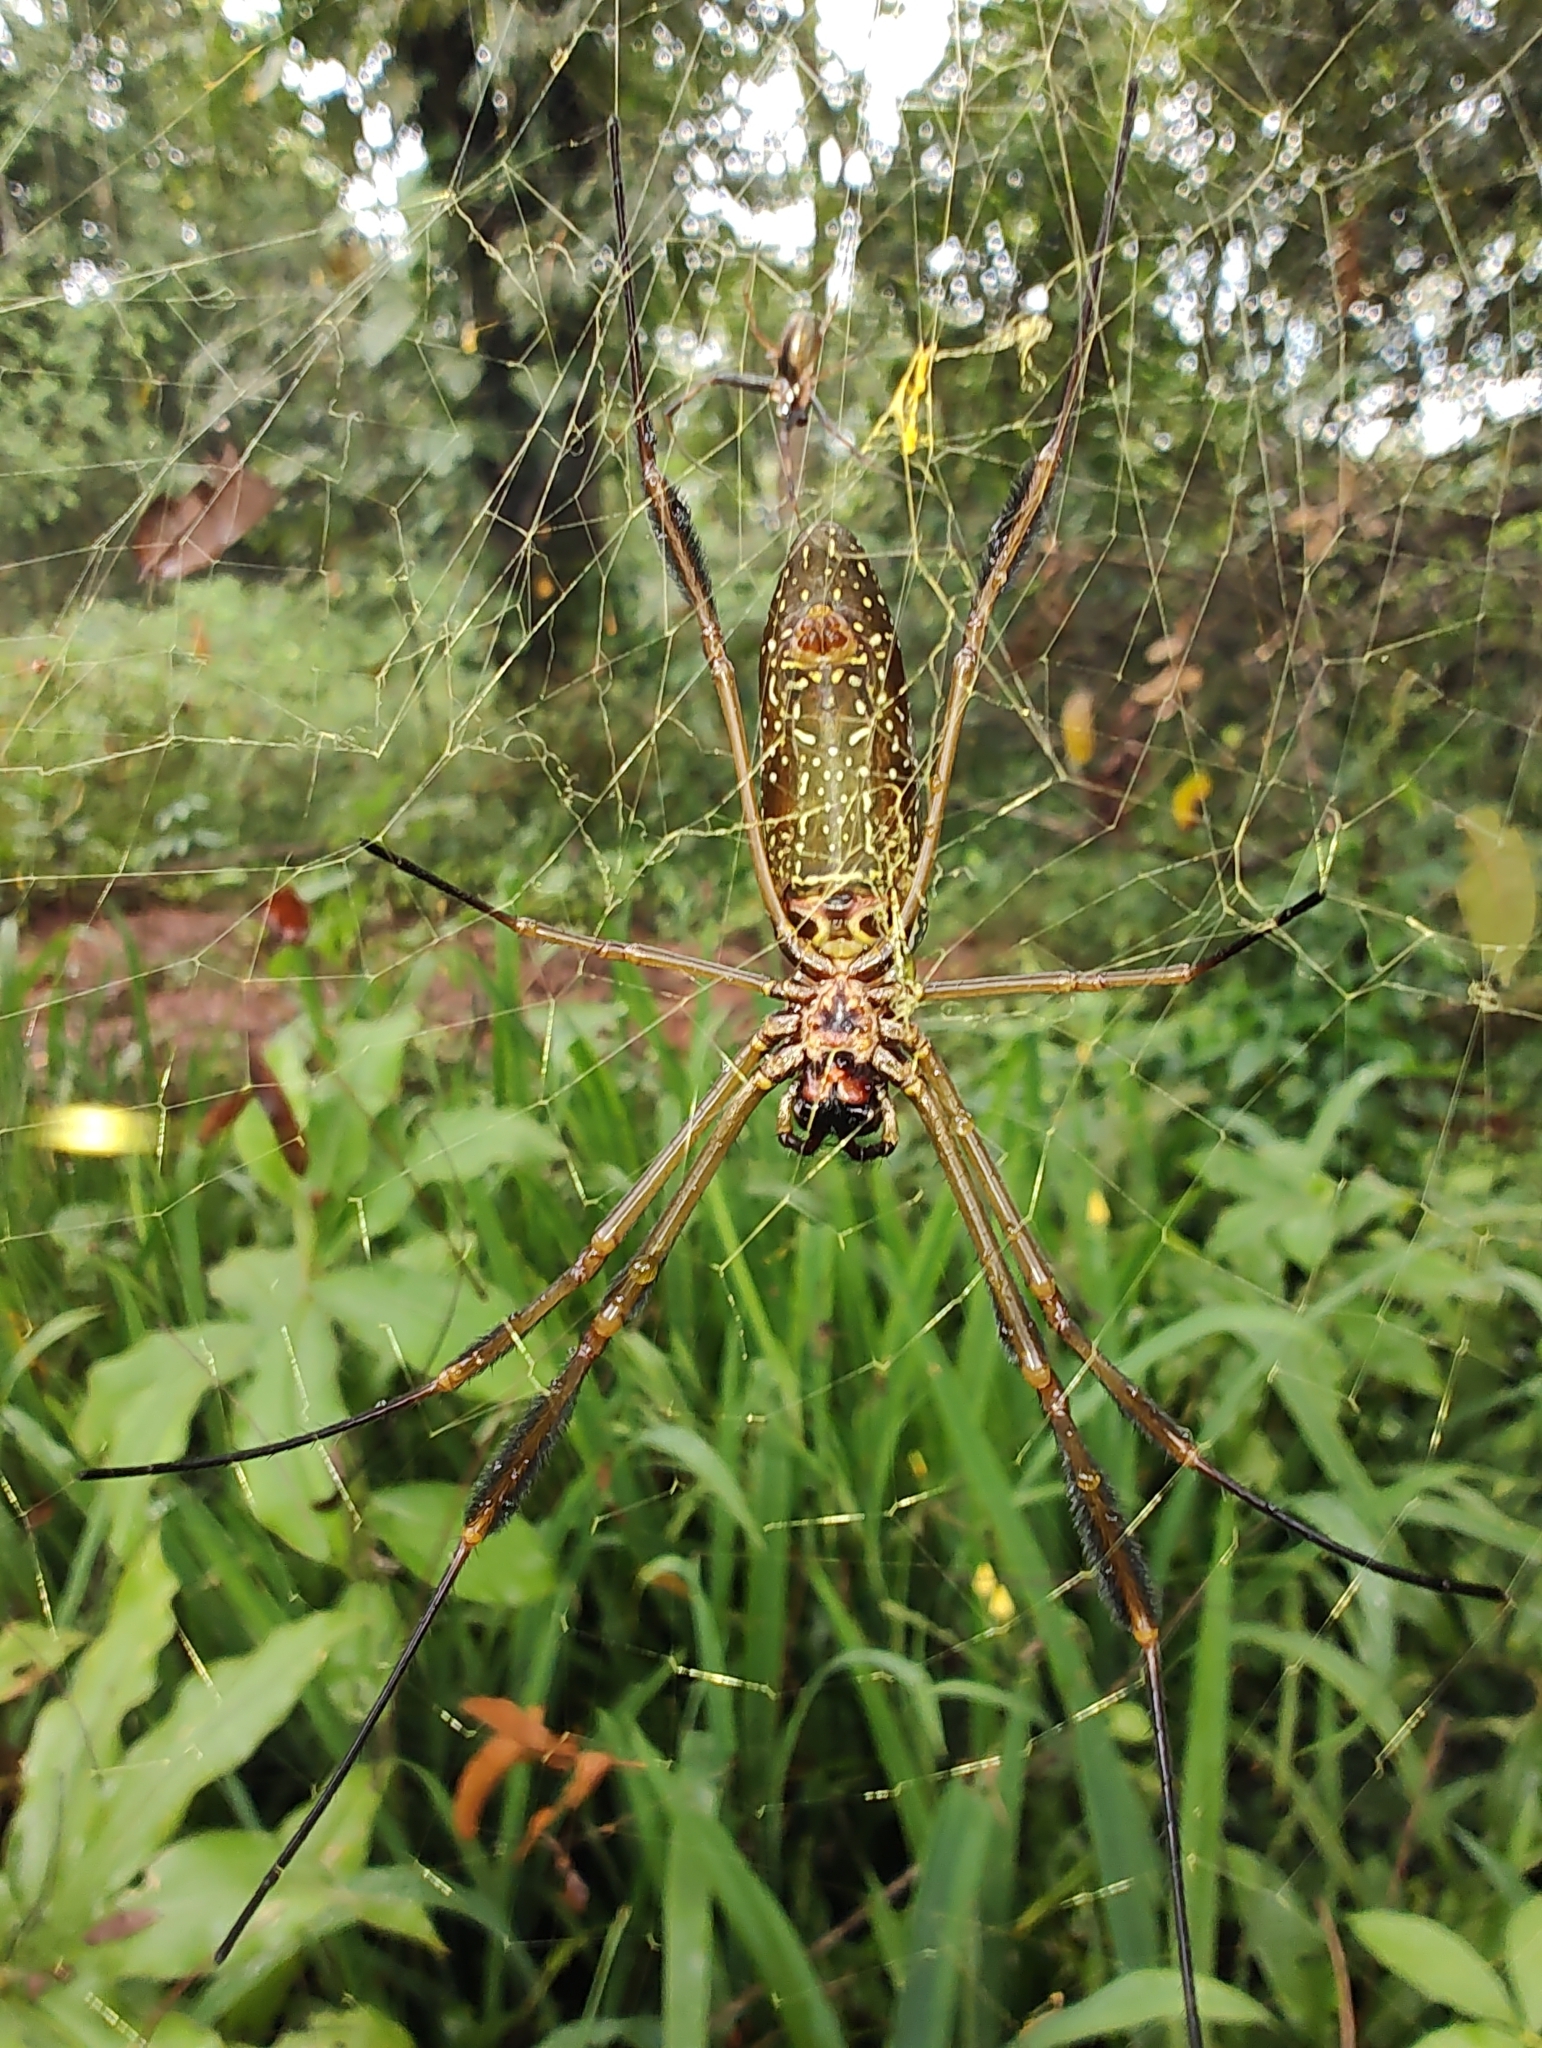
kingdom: Animalia
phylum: Arthropoda
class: Arachnida
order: Araneae
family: Araneidae
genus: Trichonephila
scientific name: Trichonephila clavipes
